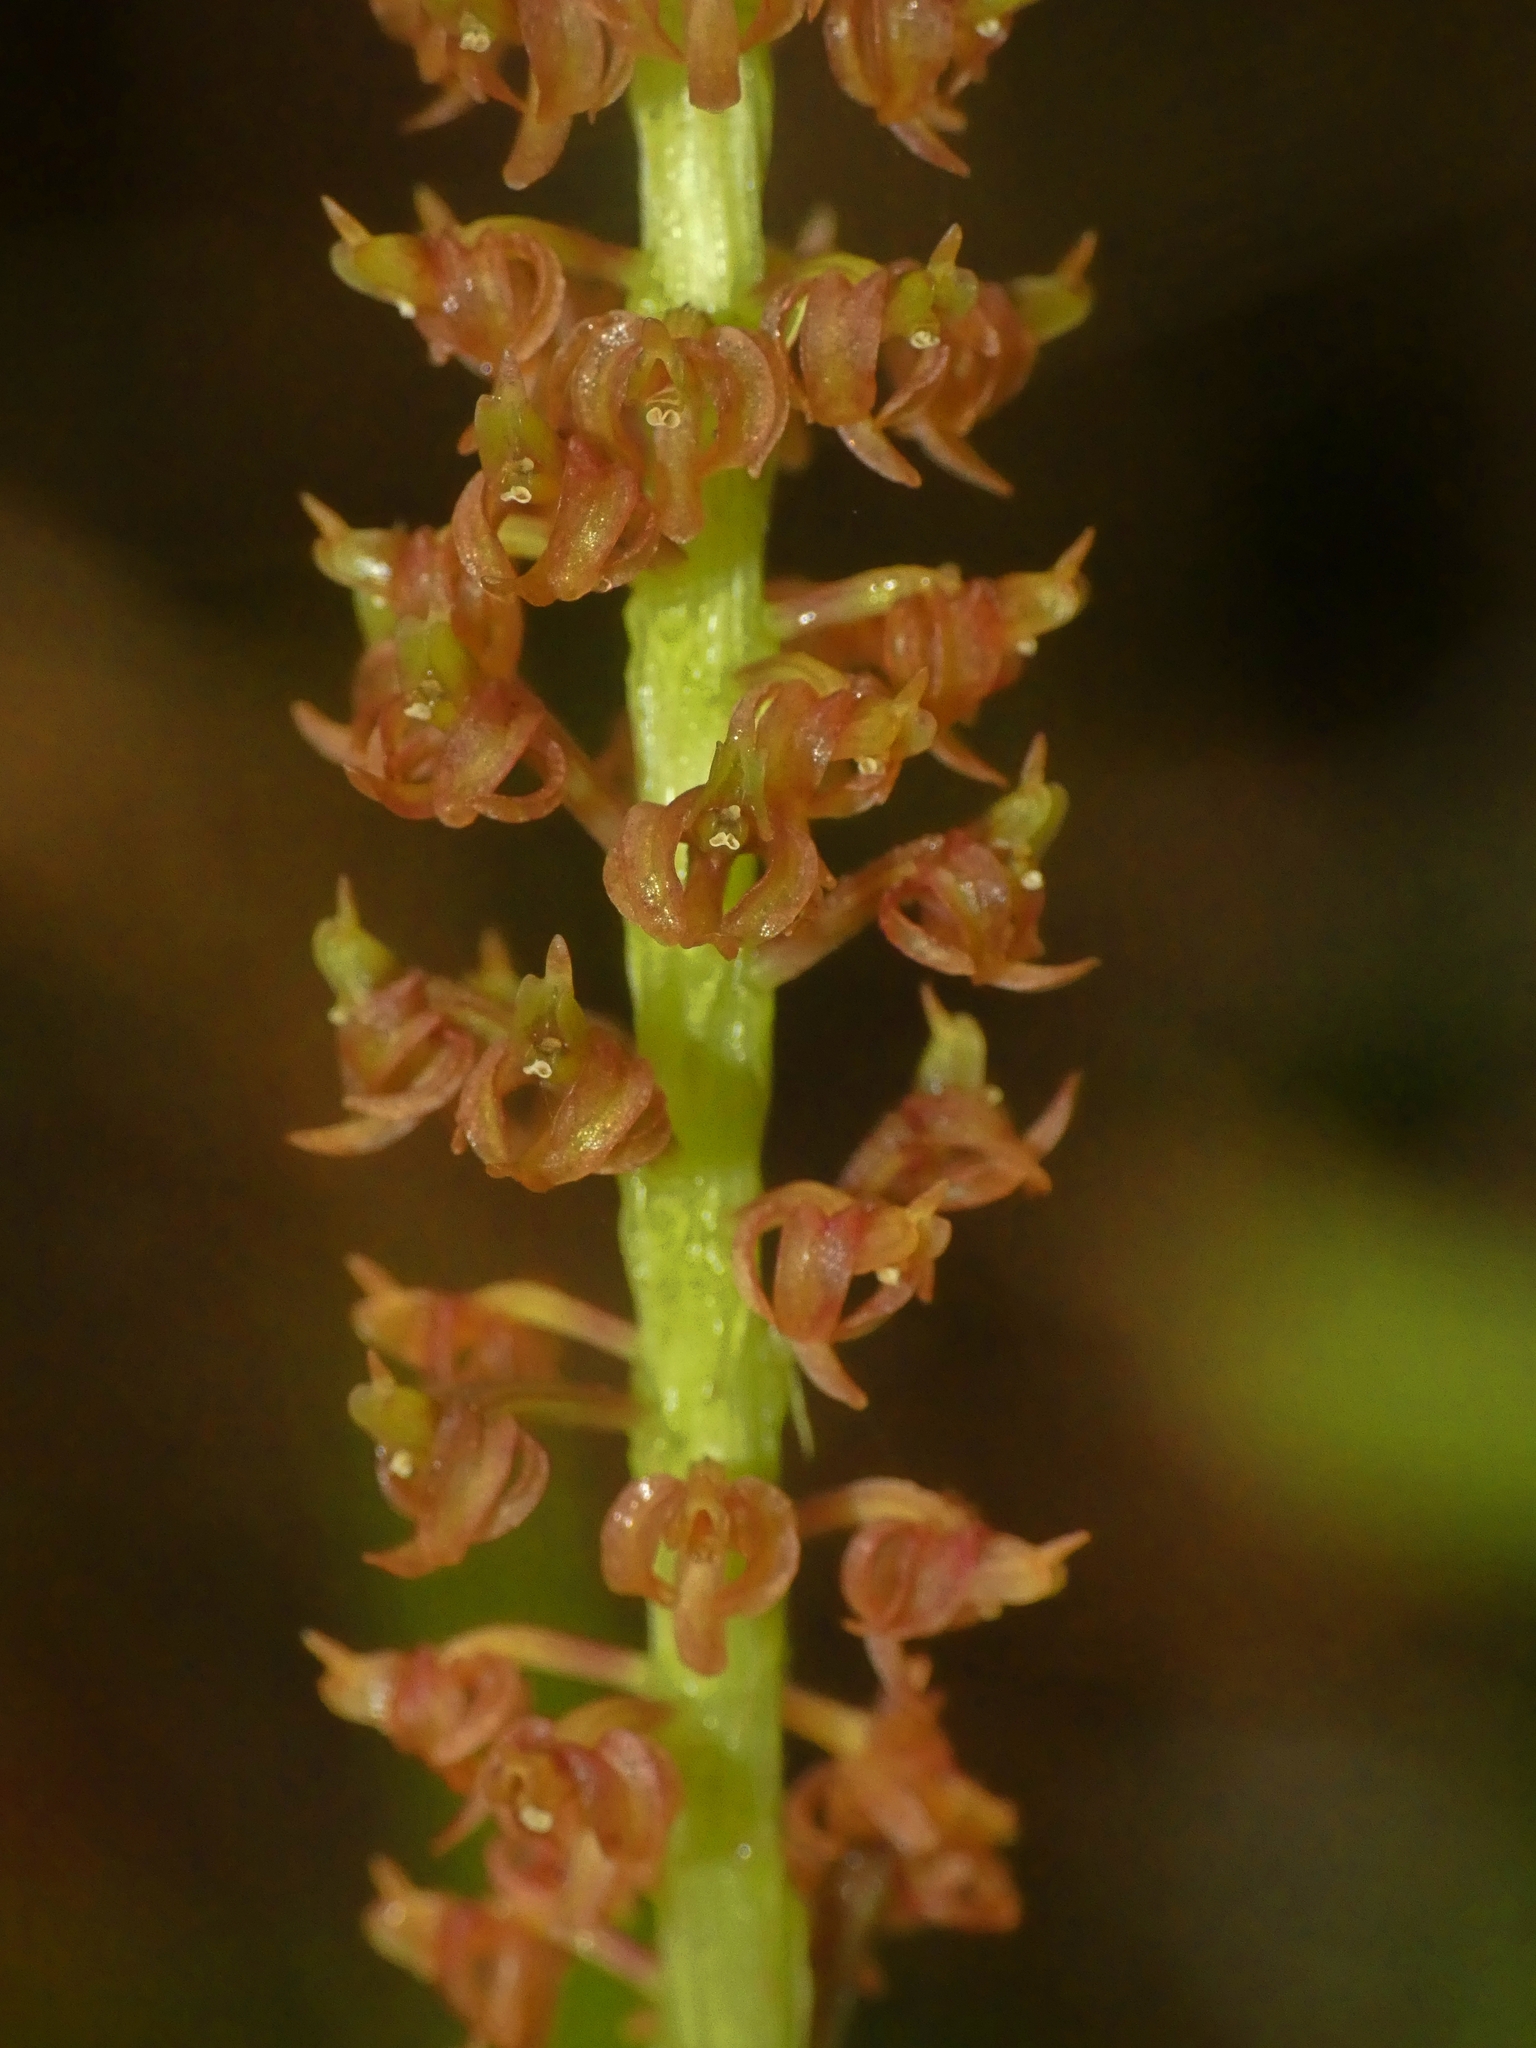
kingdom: Plantae
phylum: Tracheophyta
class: Liliopsida
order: Asparagales
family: Orchidaceae
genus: Dienia
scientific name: Dienia ophrydis
